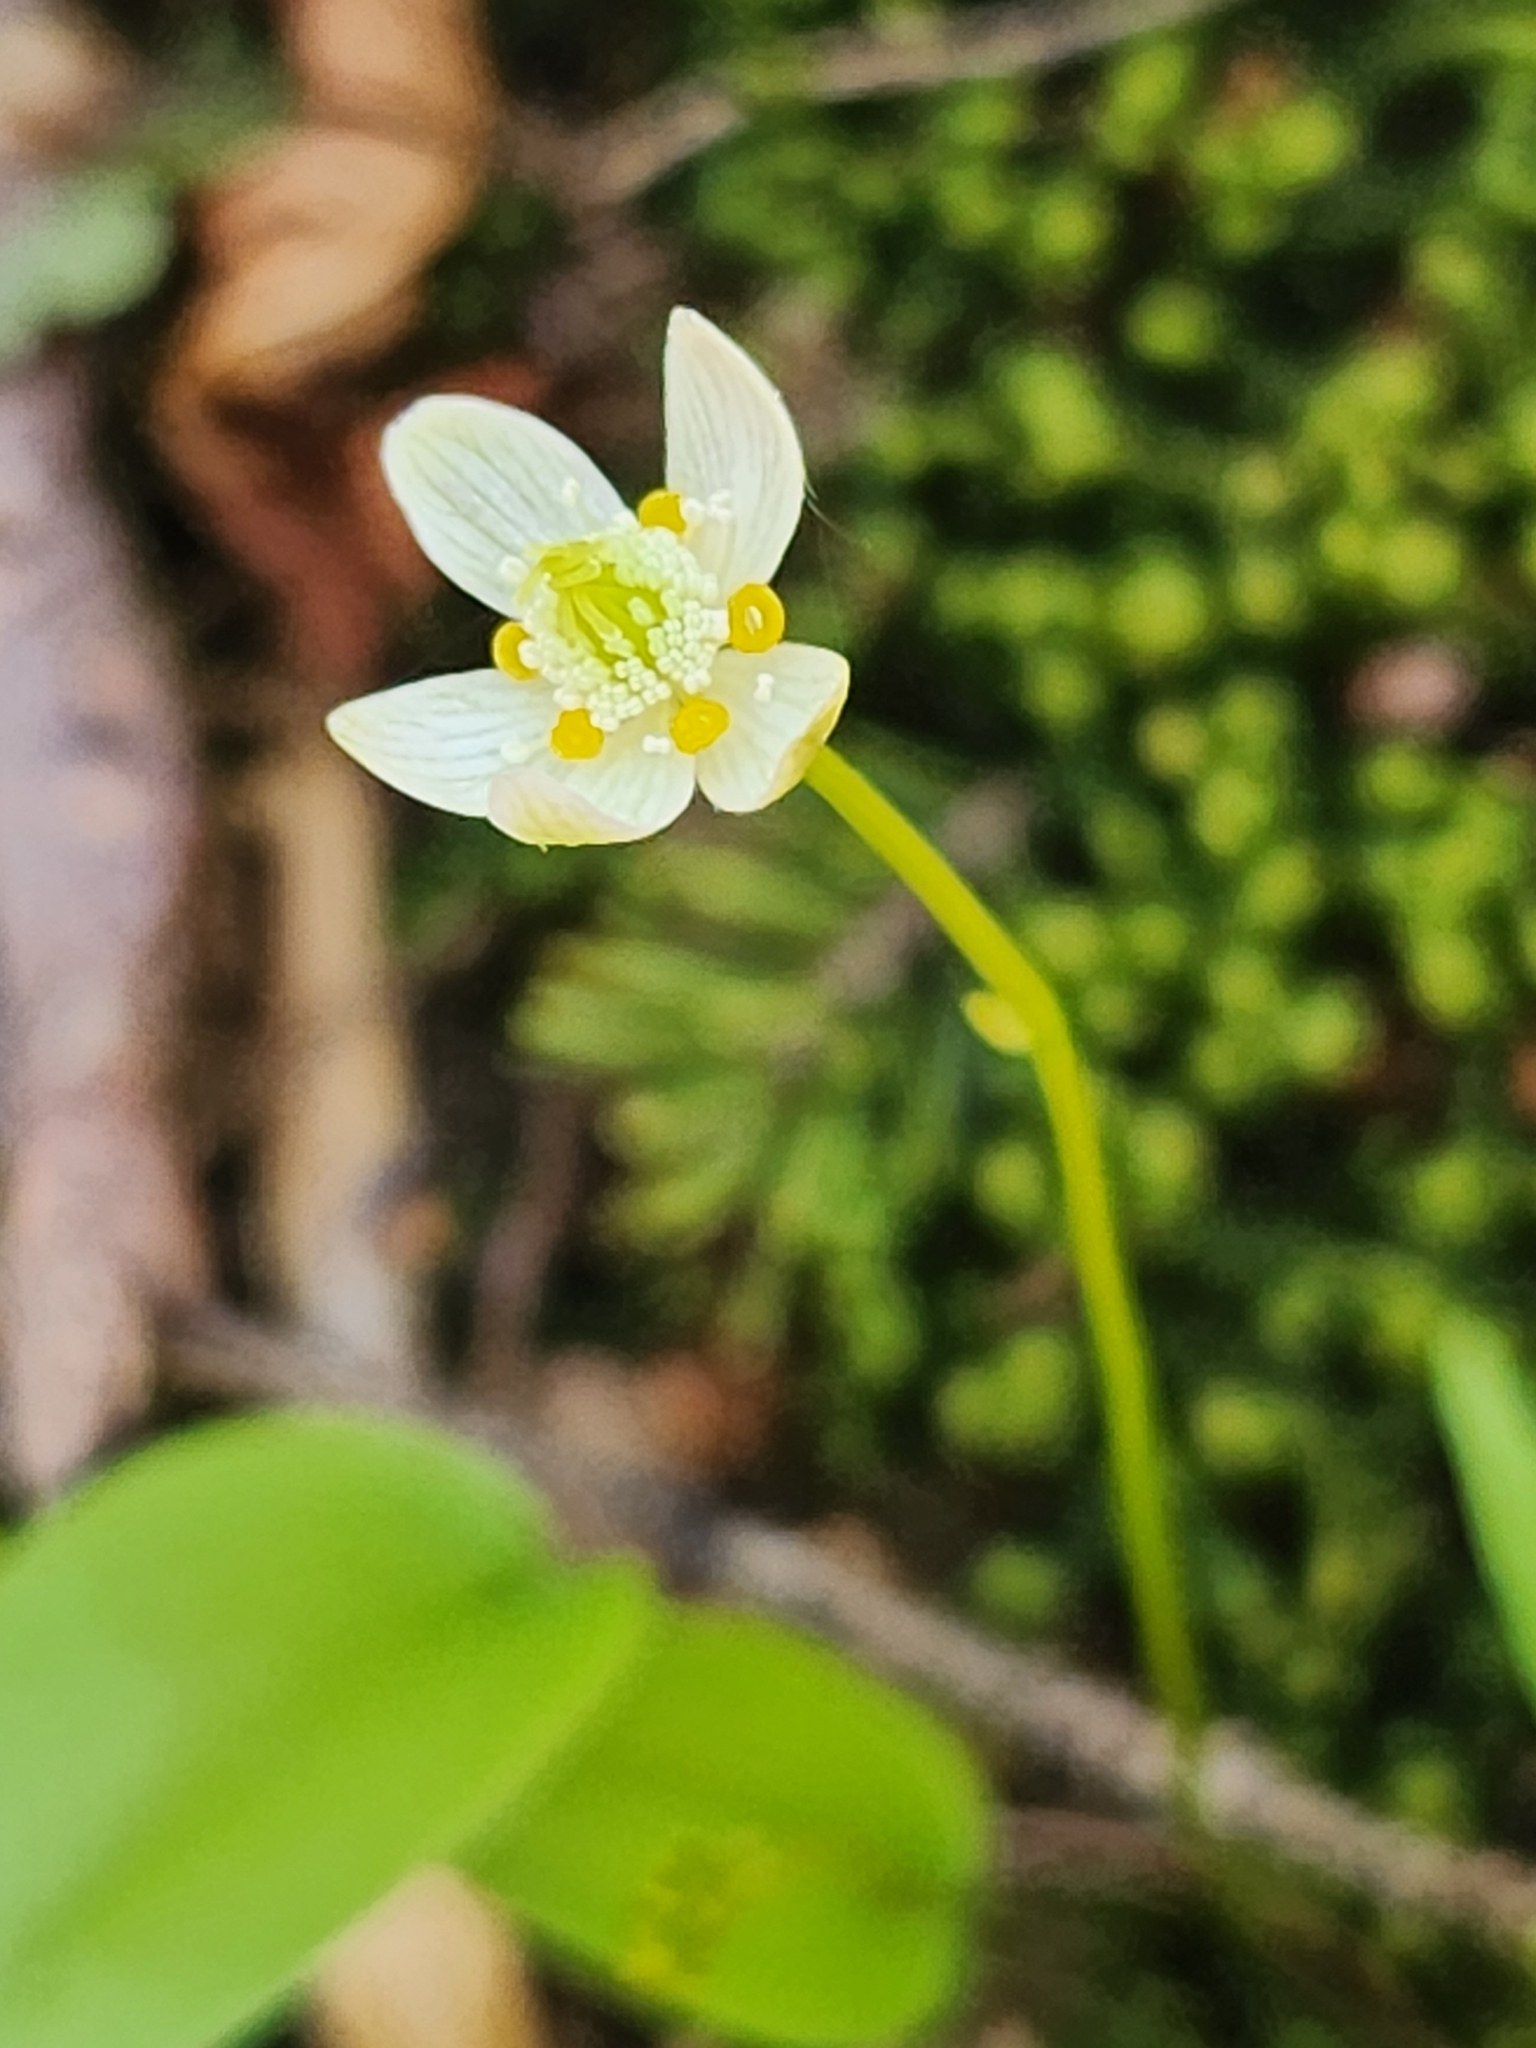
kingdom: Plantae
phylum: Tracheophyta
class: Magnoliopsida
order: Ranunculales
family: Ranunculaceae
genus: Coptis
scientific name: Coptis trifolia
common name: Canker-root
